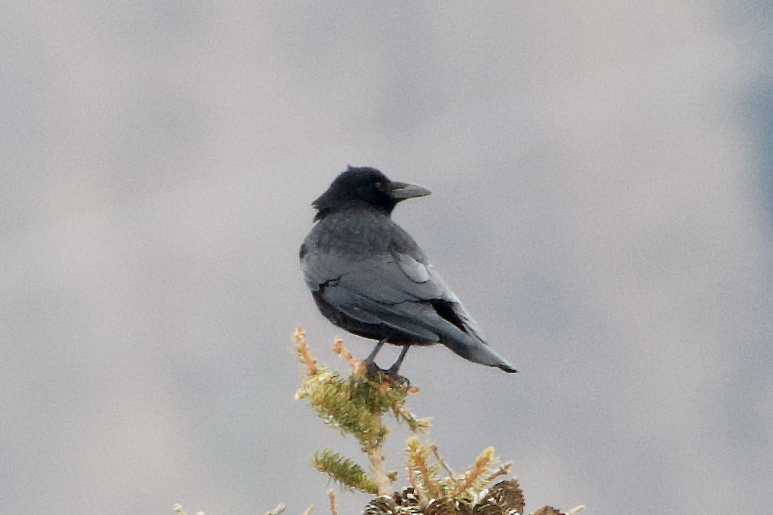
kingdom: Animalia
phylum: Chordata
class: Aves
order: Passeriformes
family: Corvidae
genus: Corvus
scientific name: Corvus corone
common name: Carrion crow
